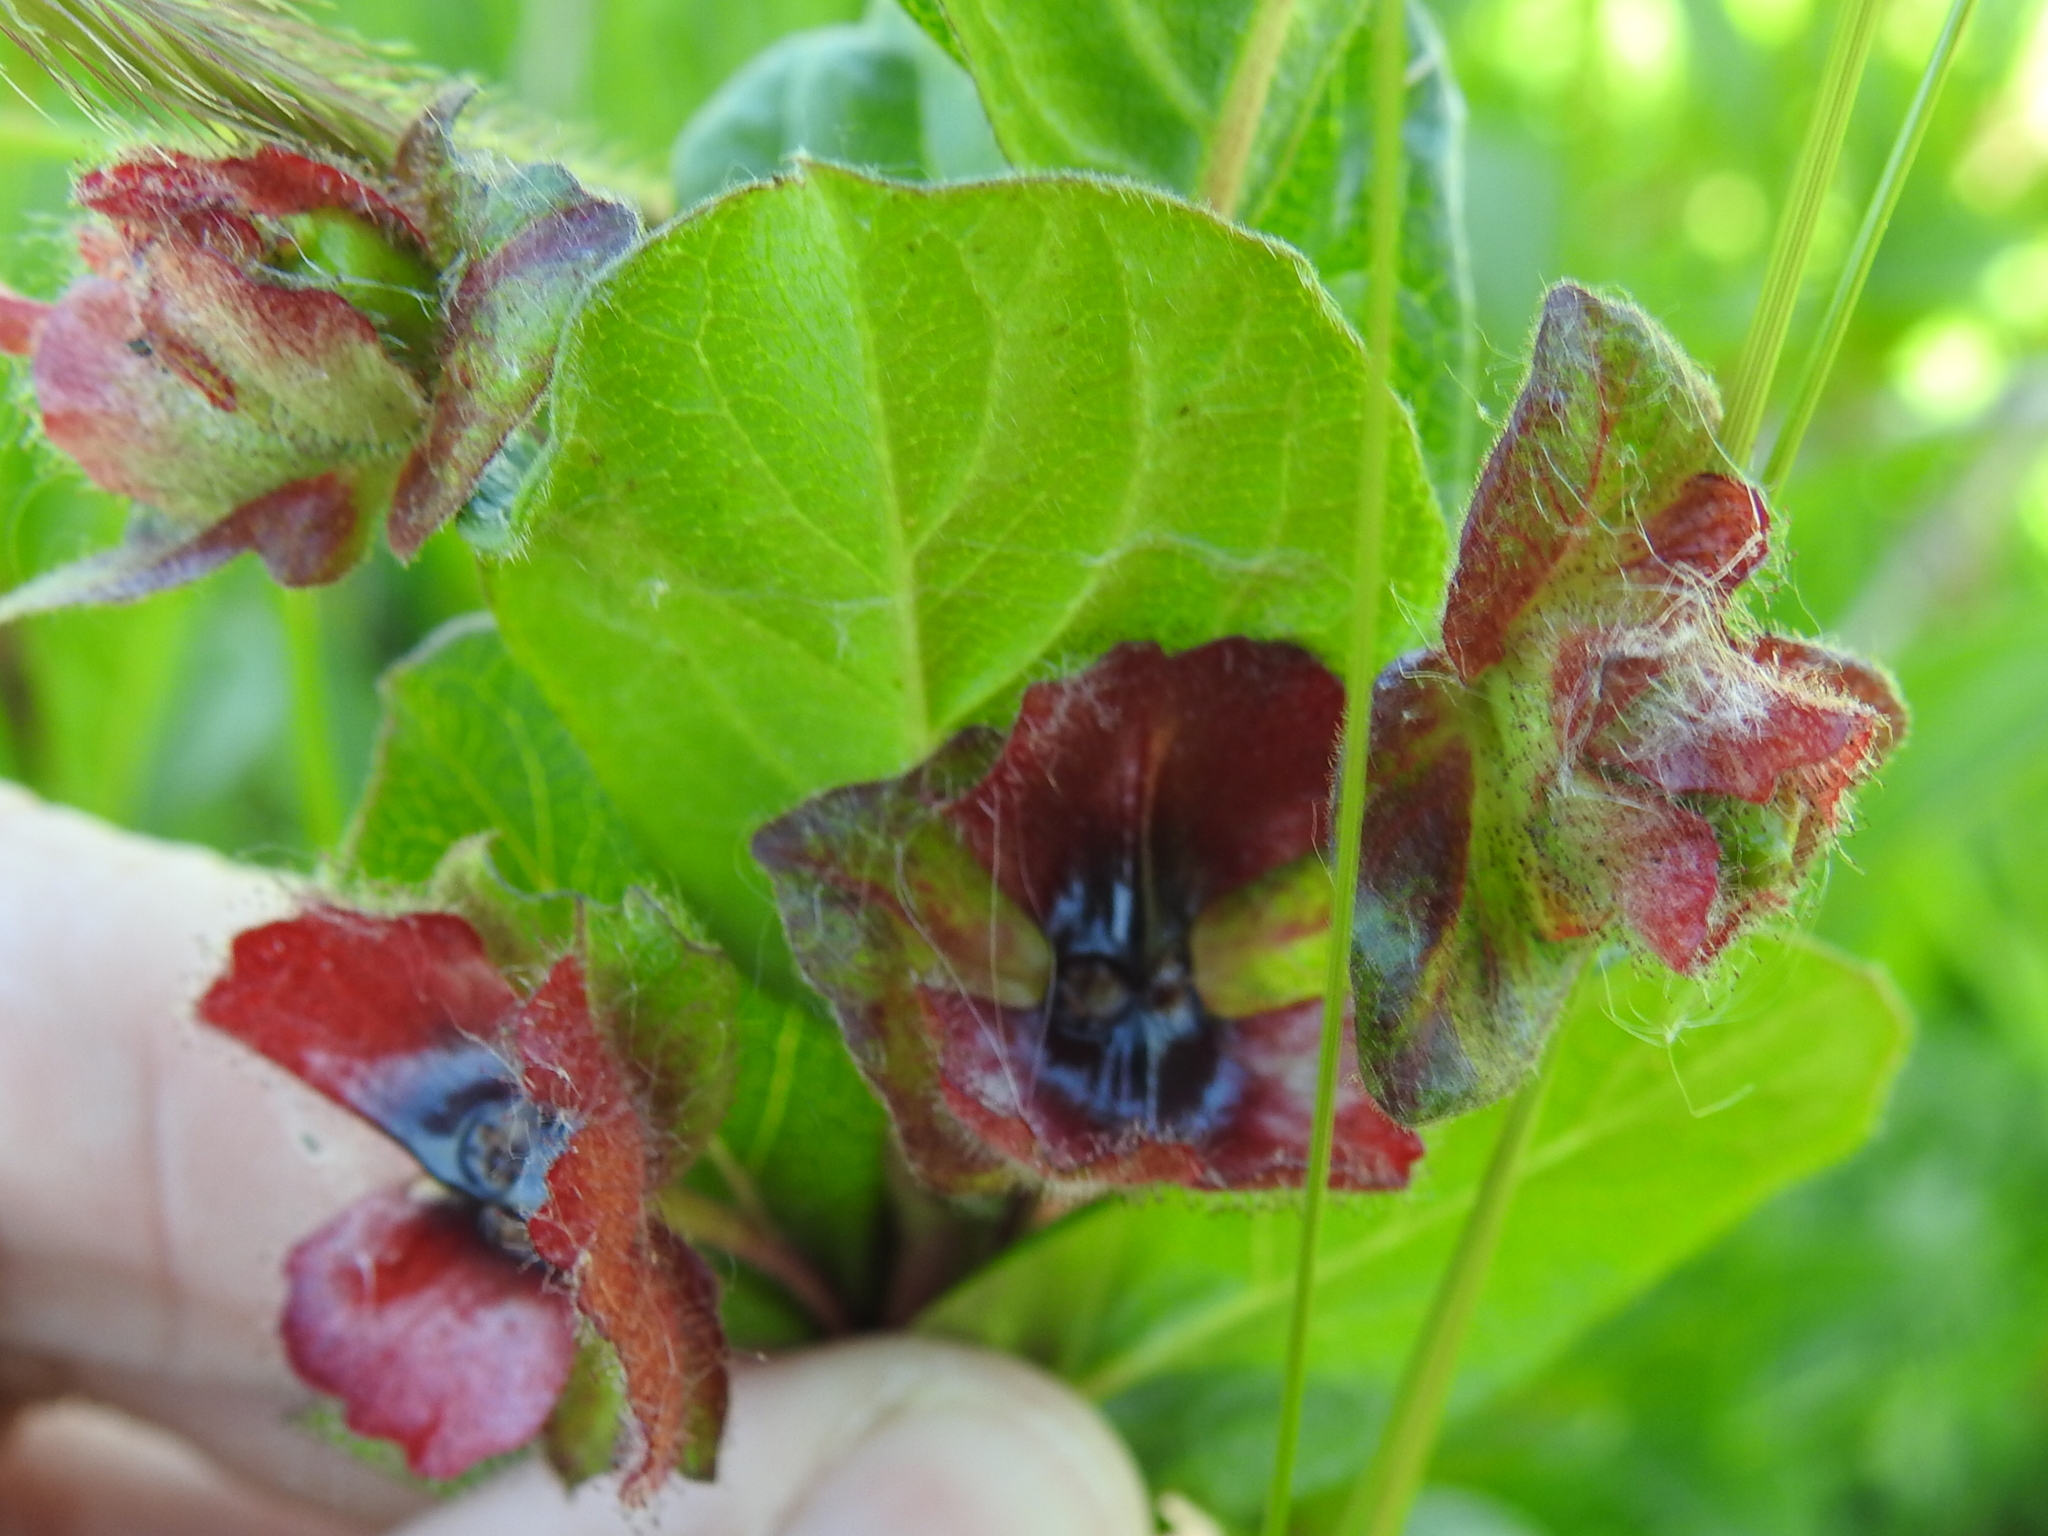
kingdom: Plantae
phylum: Tracheophyta
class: Magnoliopsida
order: Dipsacales
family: Caprifoliaceae
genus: Lonicera
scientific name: Lonicera involucrata
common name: Californian honeysuckle
